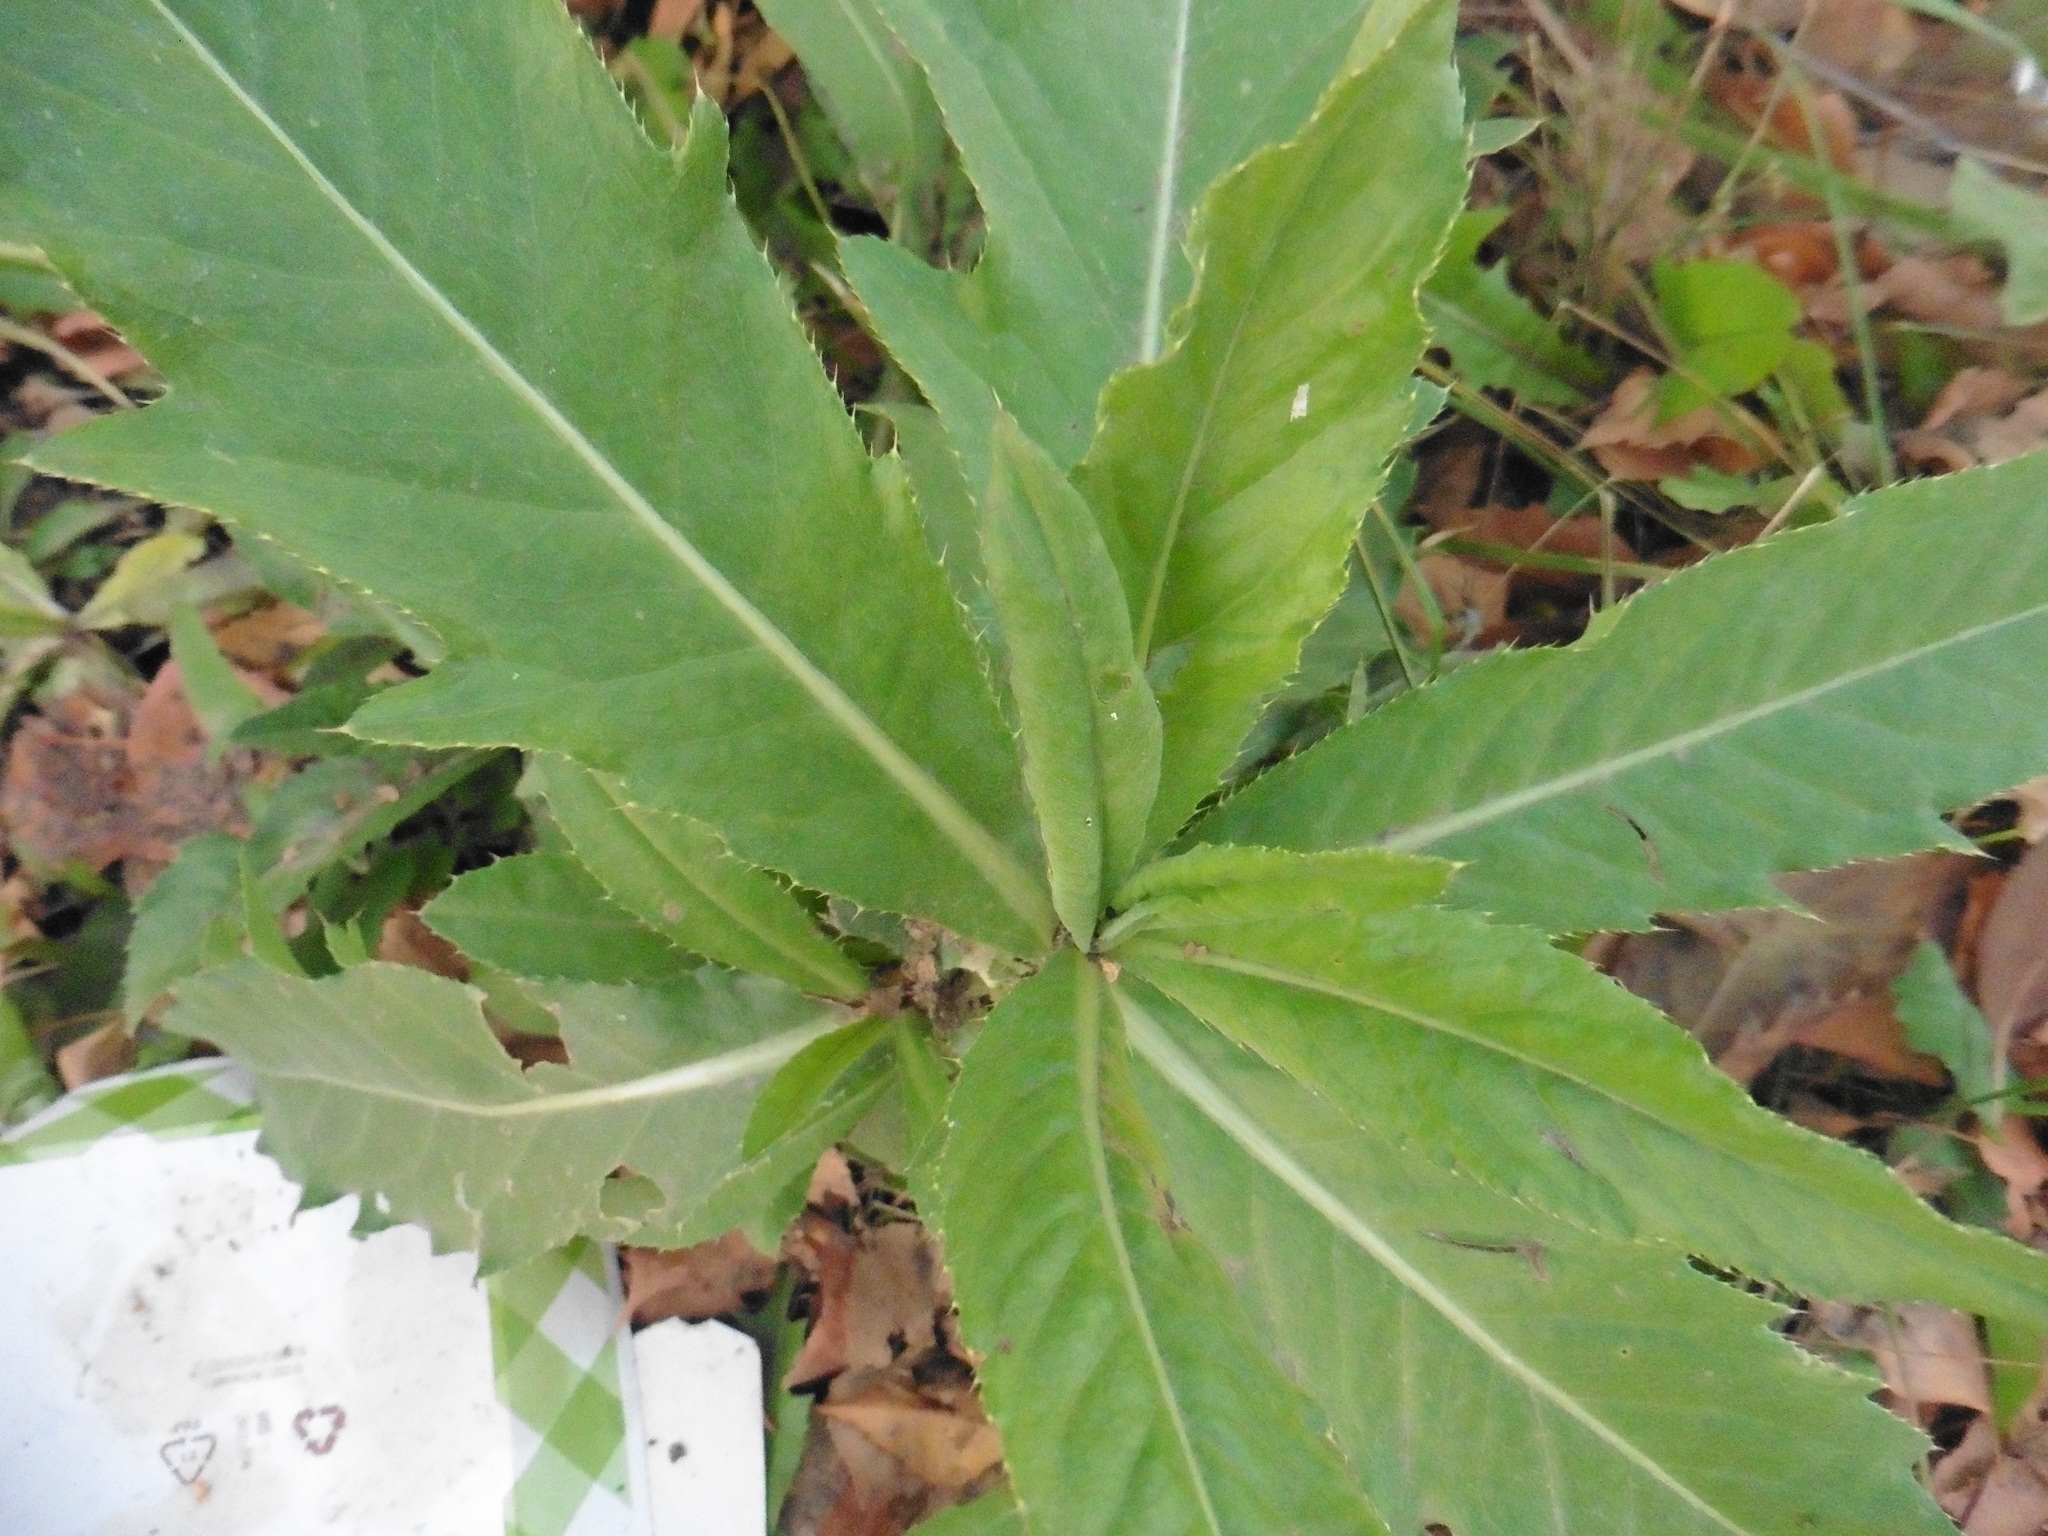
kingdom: Plantae
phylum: Tracheophyta
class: Magnoliopsida
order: Asterales
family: Asteraceae
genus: Cirsium
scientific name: Cirsium arvense
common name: Creeping thistle
